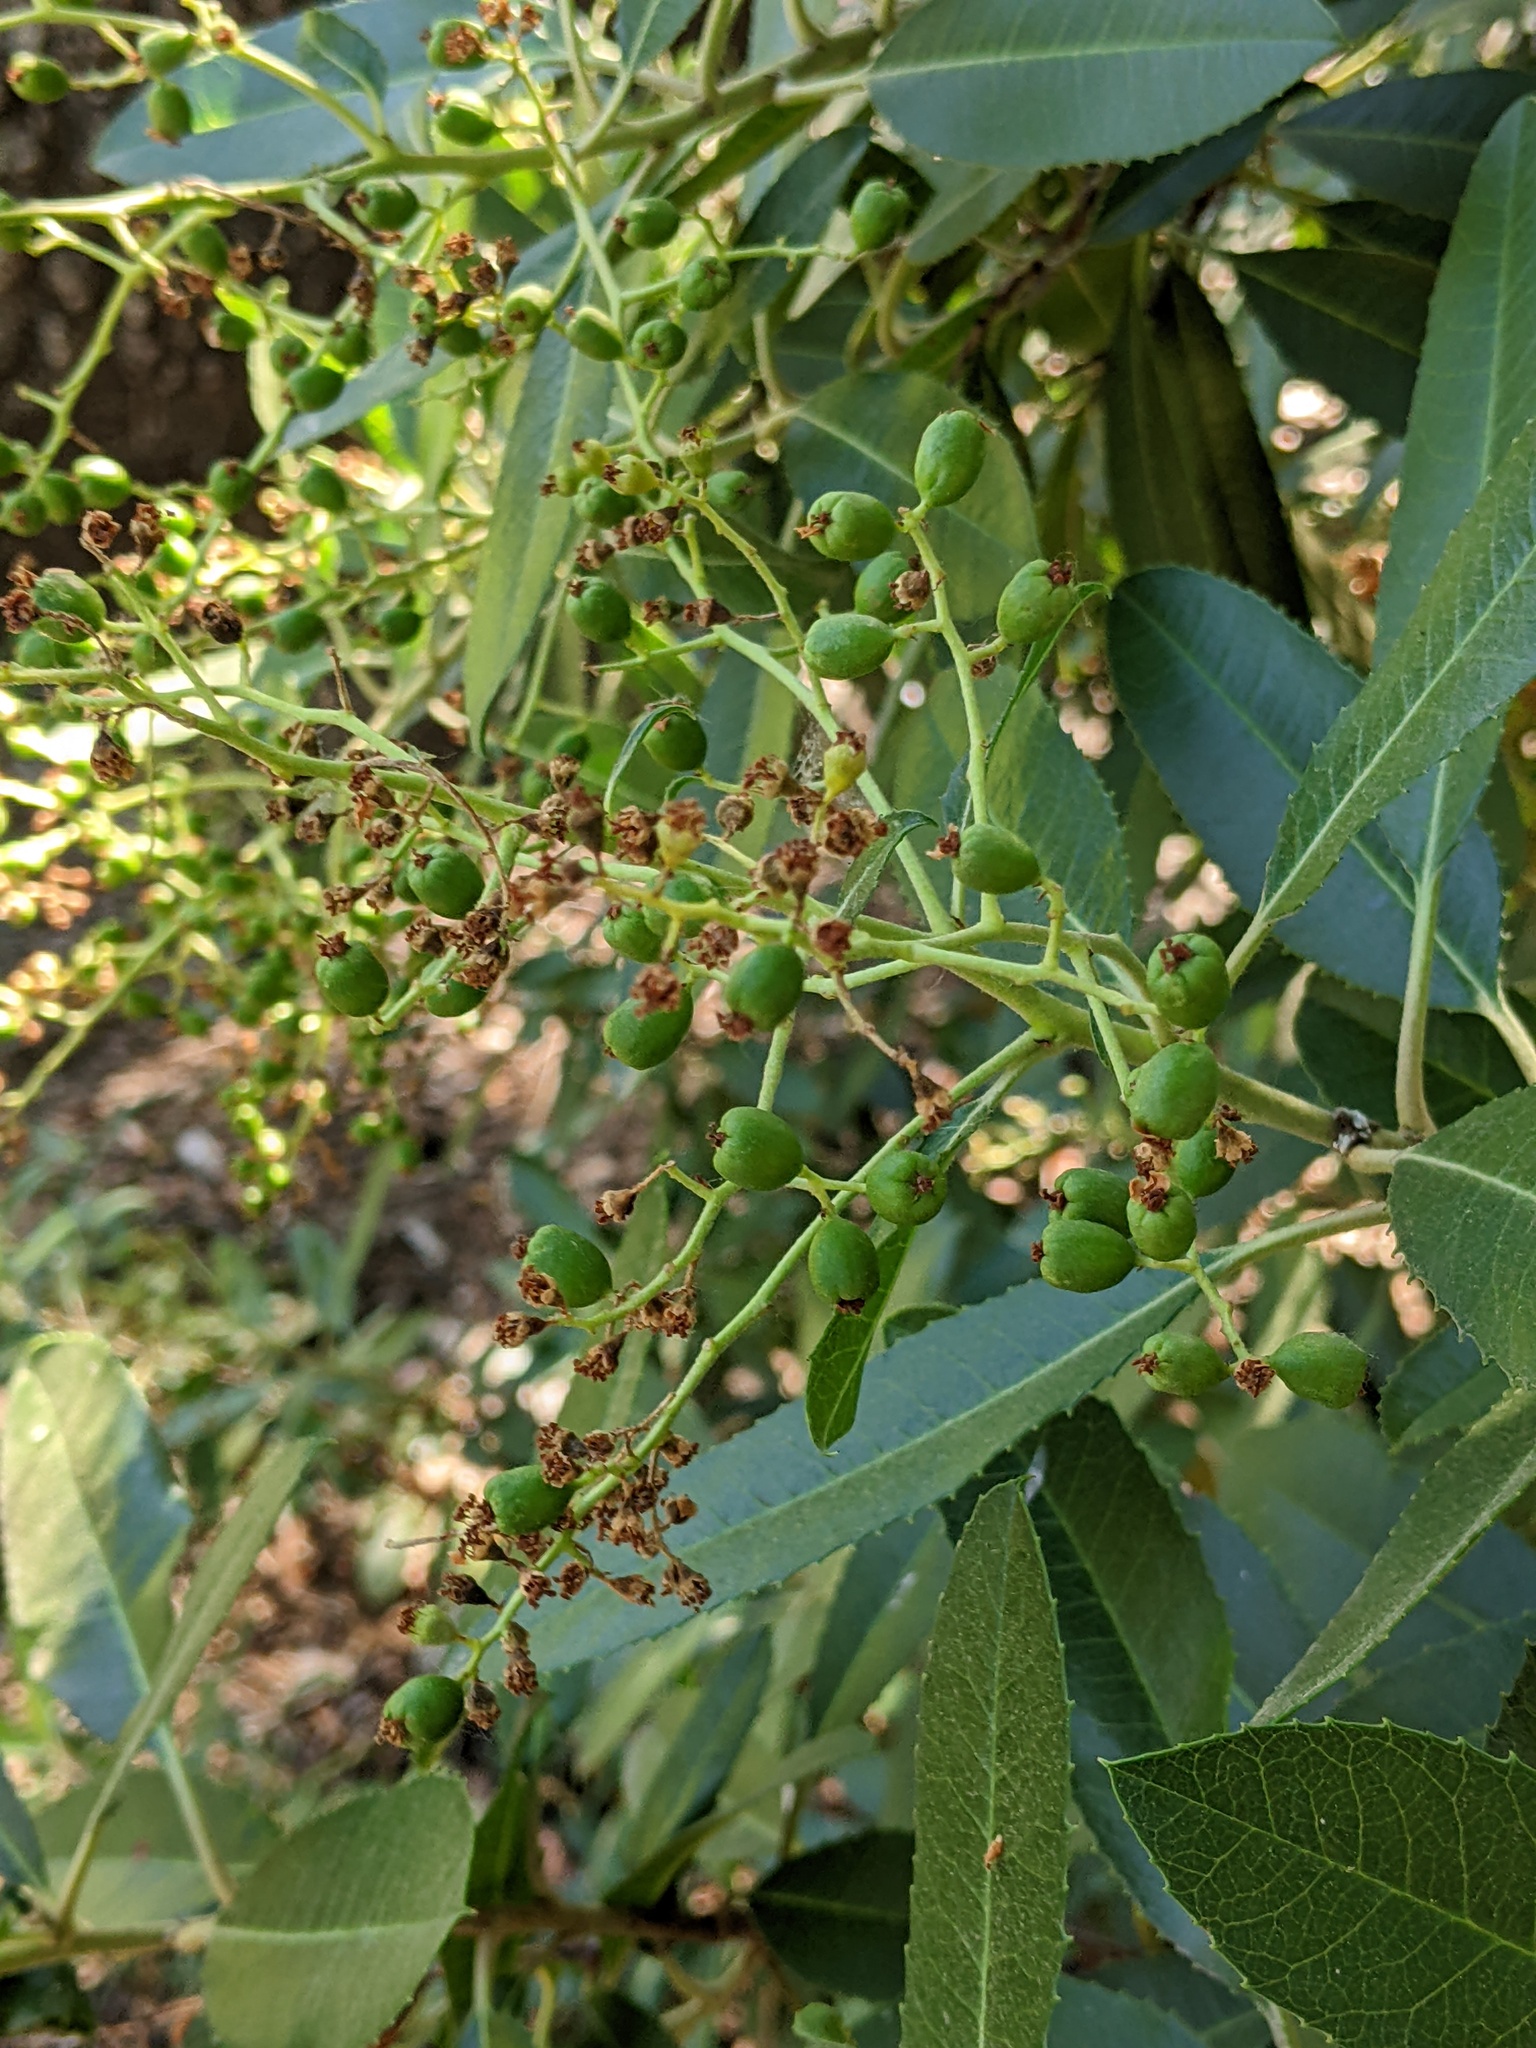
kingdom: Plantae
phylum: Tracheophyta
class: Magnoliopsida
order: Rosales
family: Rosaceae
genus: Heteromeles
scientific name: Heteromeles arbutifolia
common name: California-holly
